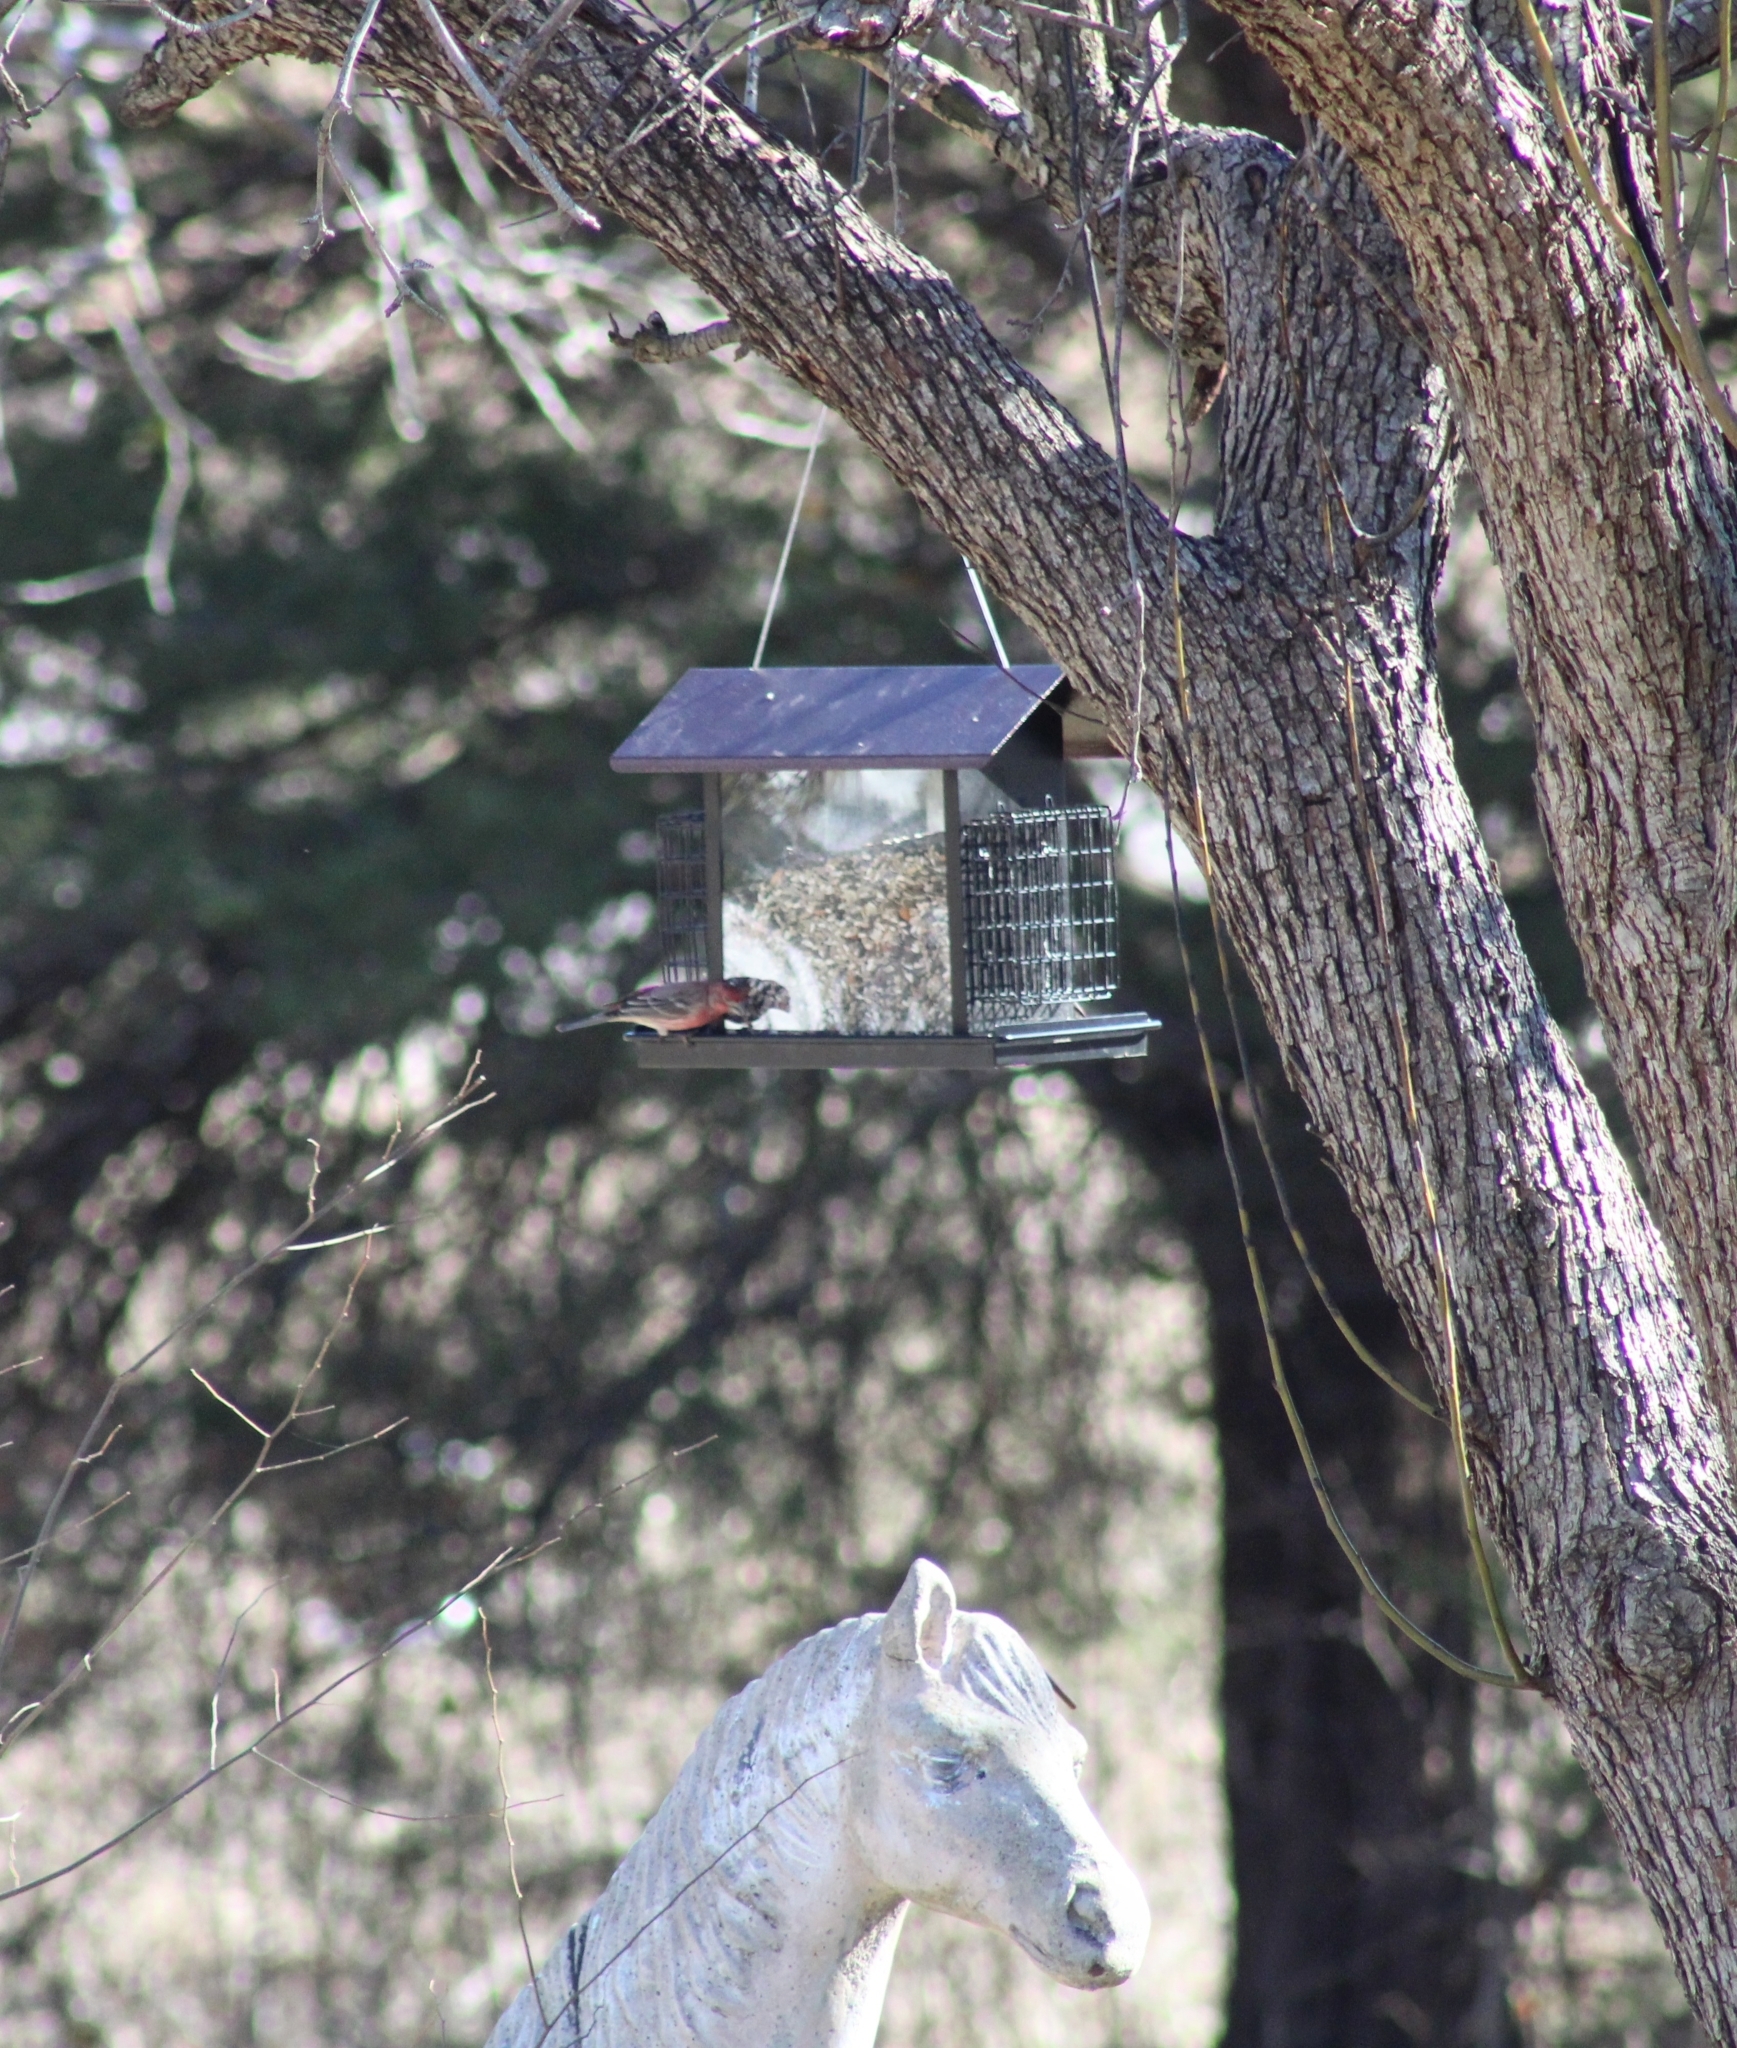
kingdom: Animalia
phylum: Chordata
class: Aves
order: Passeriformes
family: Fringillidae
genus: Haemorhous
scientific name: Haemorhous mexicanus
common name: House finch
